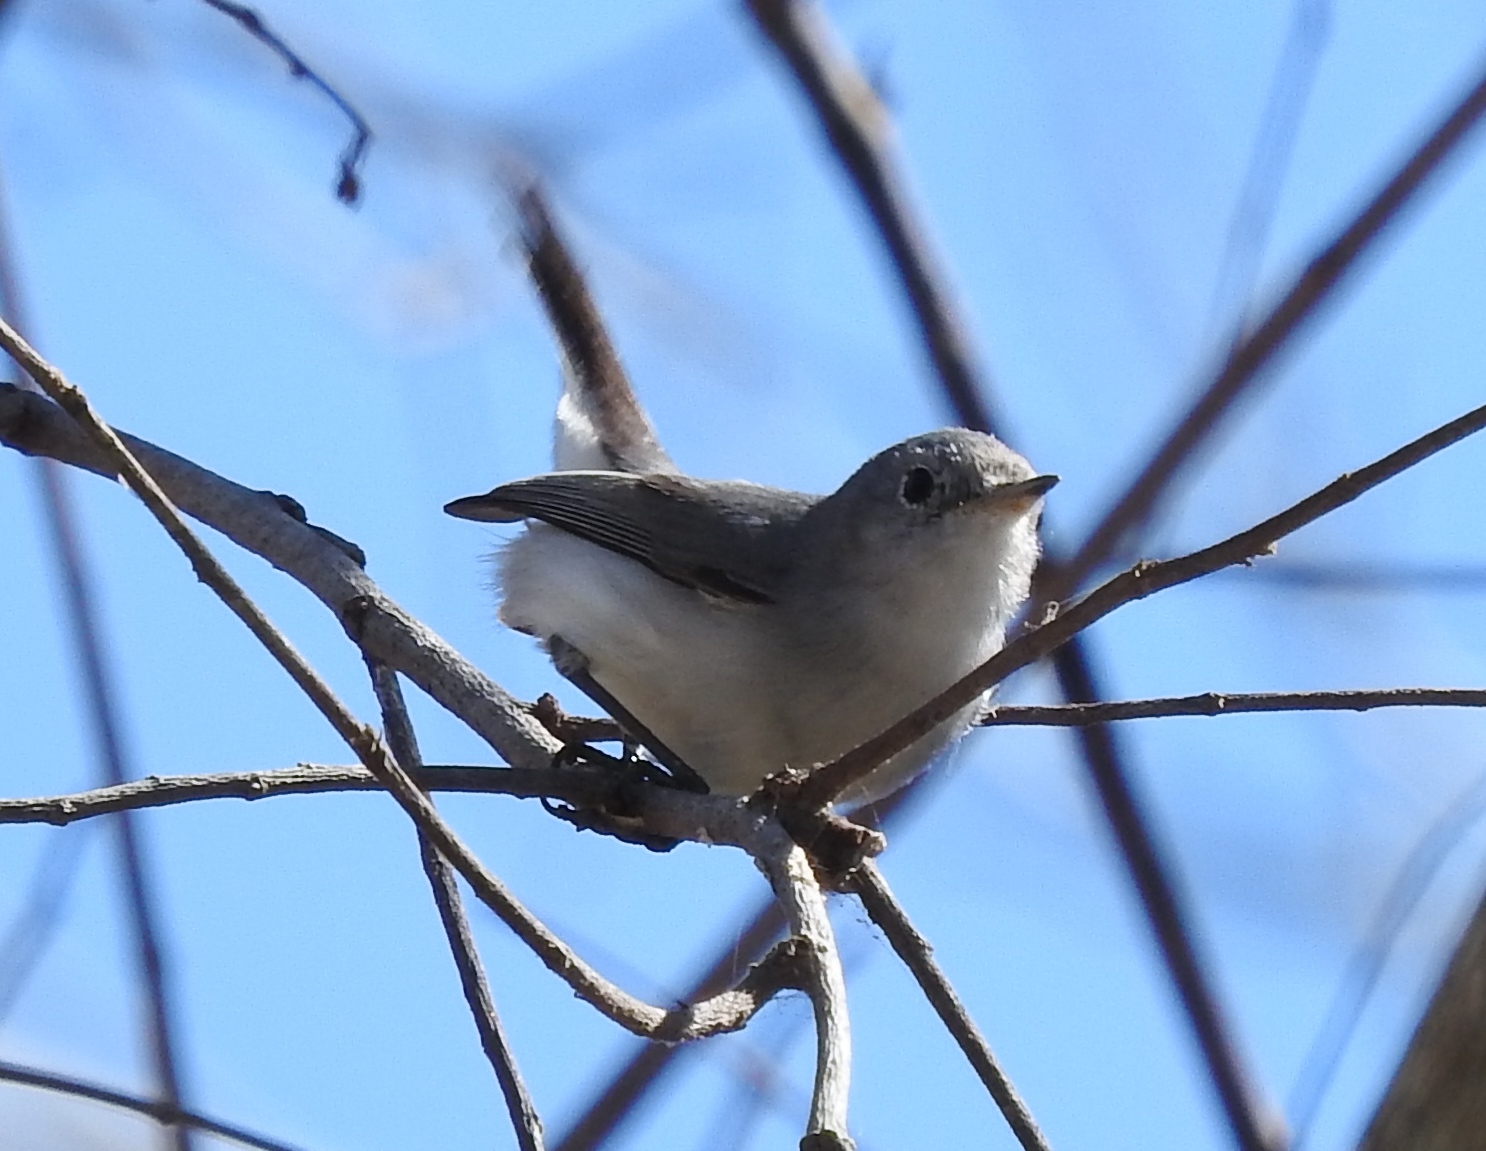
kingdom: Animalia
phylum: Chordata
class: Aves
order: Passeriformes
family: Polioptilidae
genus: Polioptila
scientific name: Polioptila caerulea
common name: Blue-gray gnatcatcher
